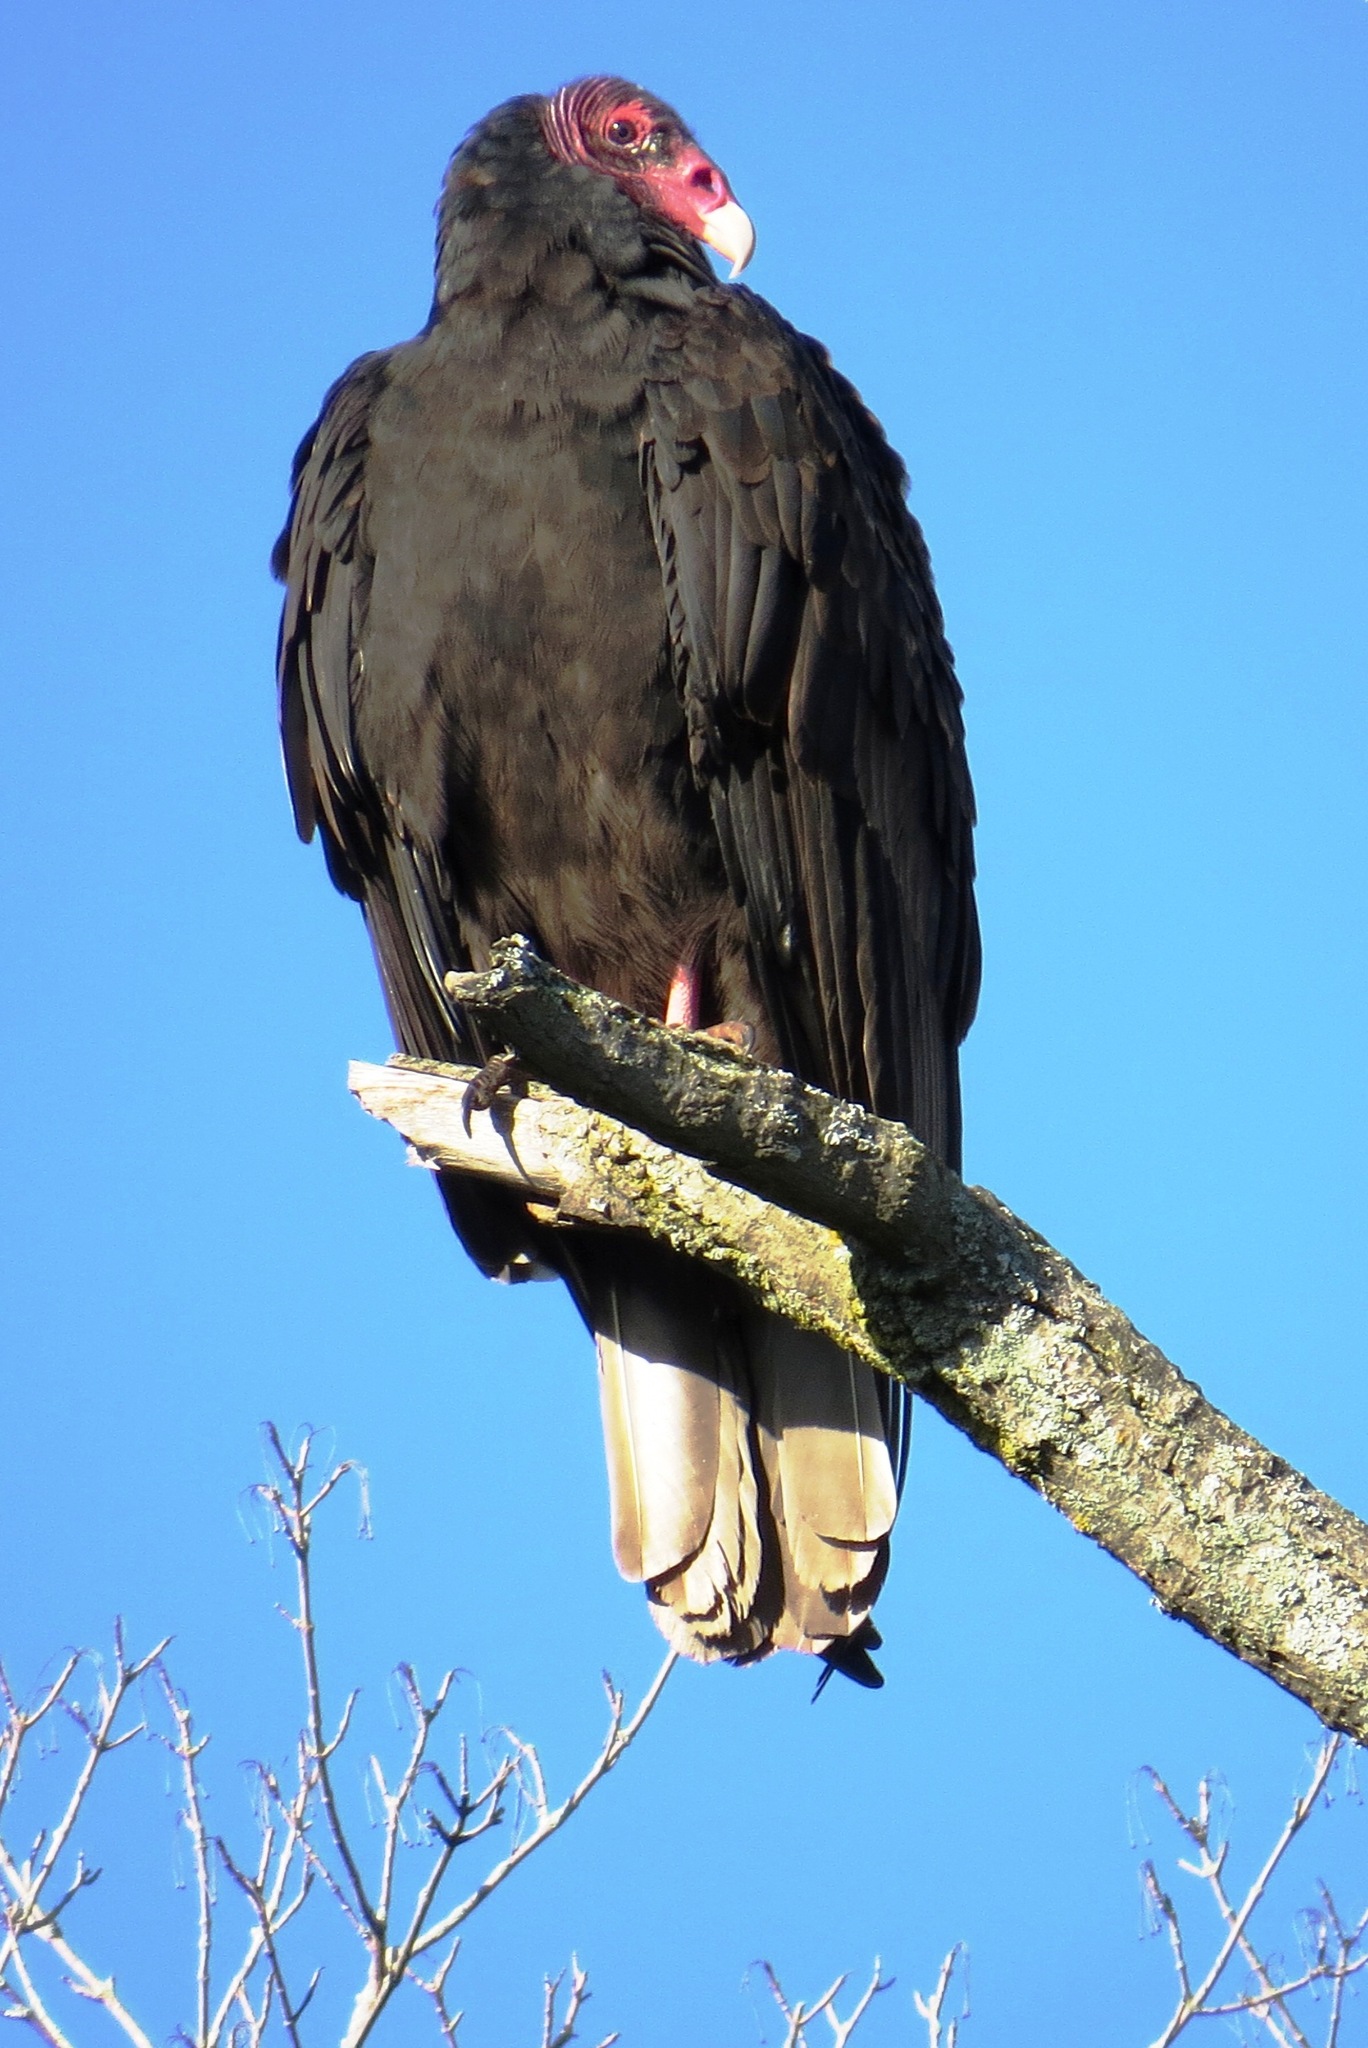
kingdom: Animalia
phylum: Chordata
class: Aves
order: Accipitriformes
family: Cathartidae
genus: Cathartes
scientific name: Cathartes aura
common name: Turkey vulture
